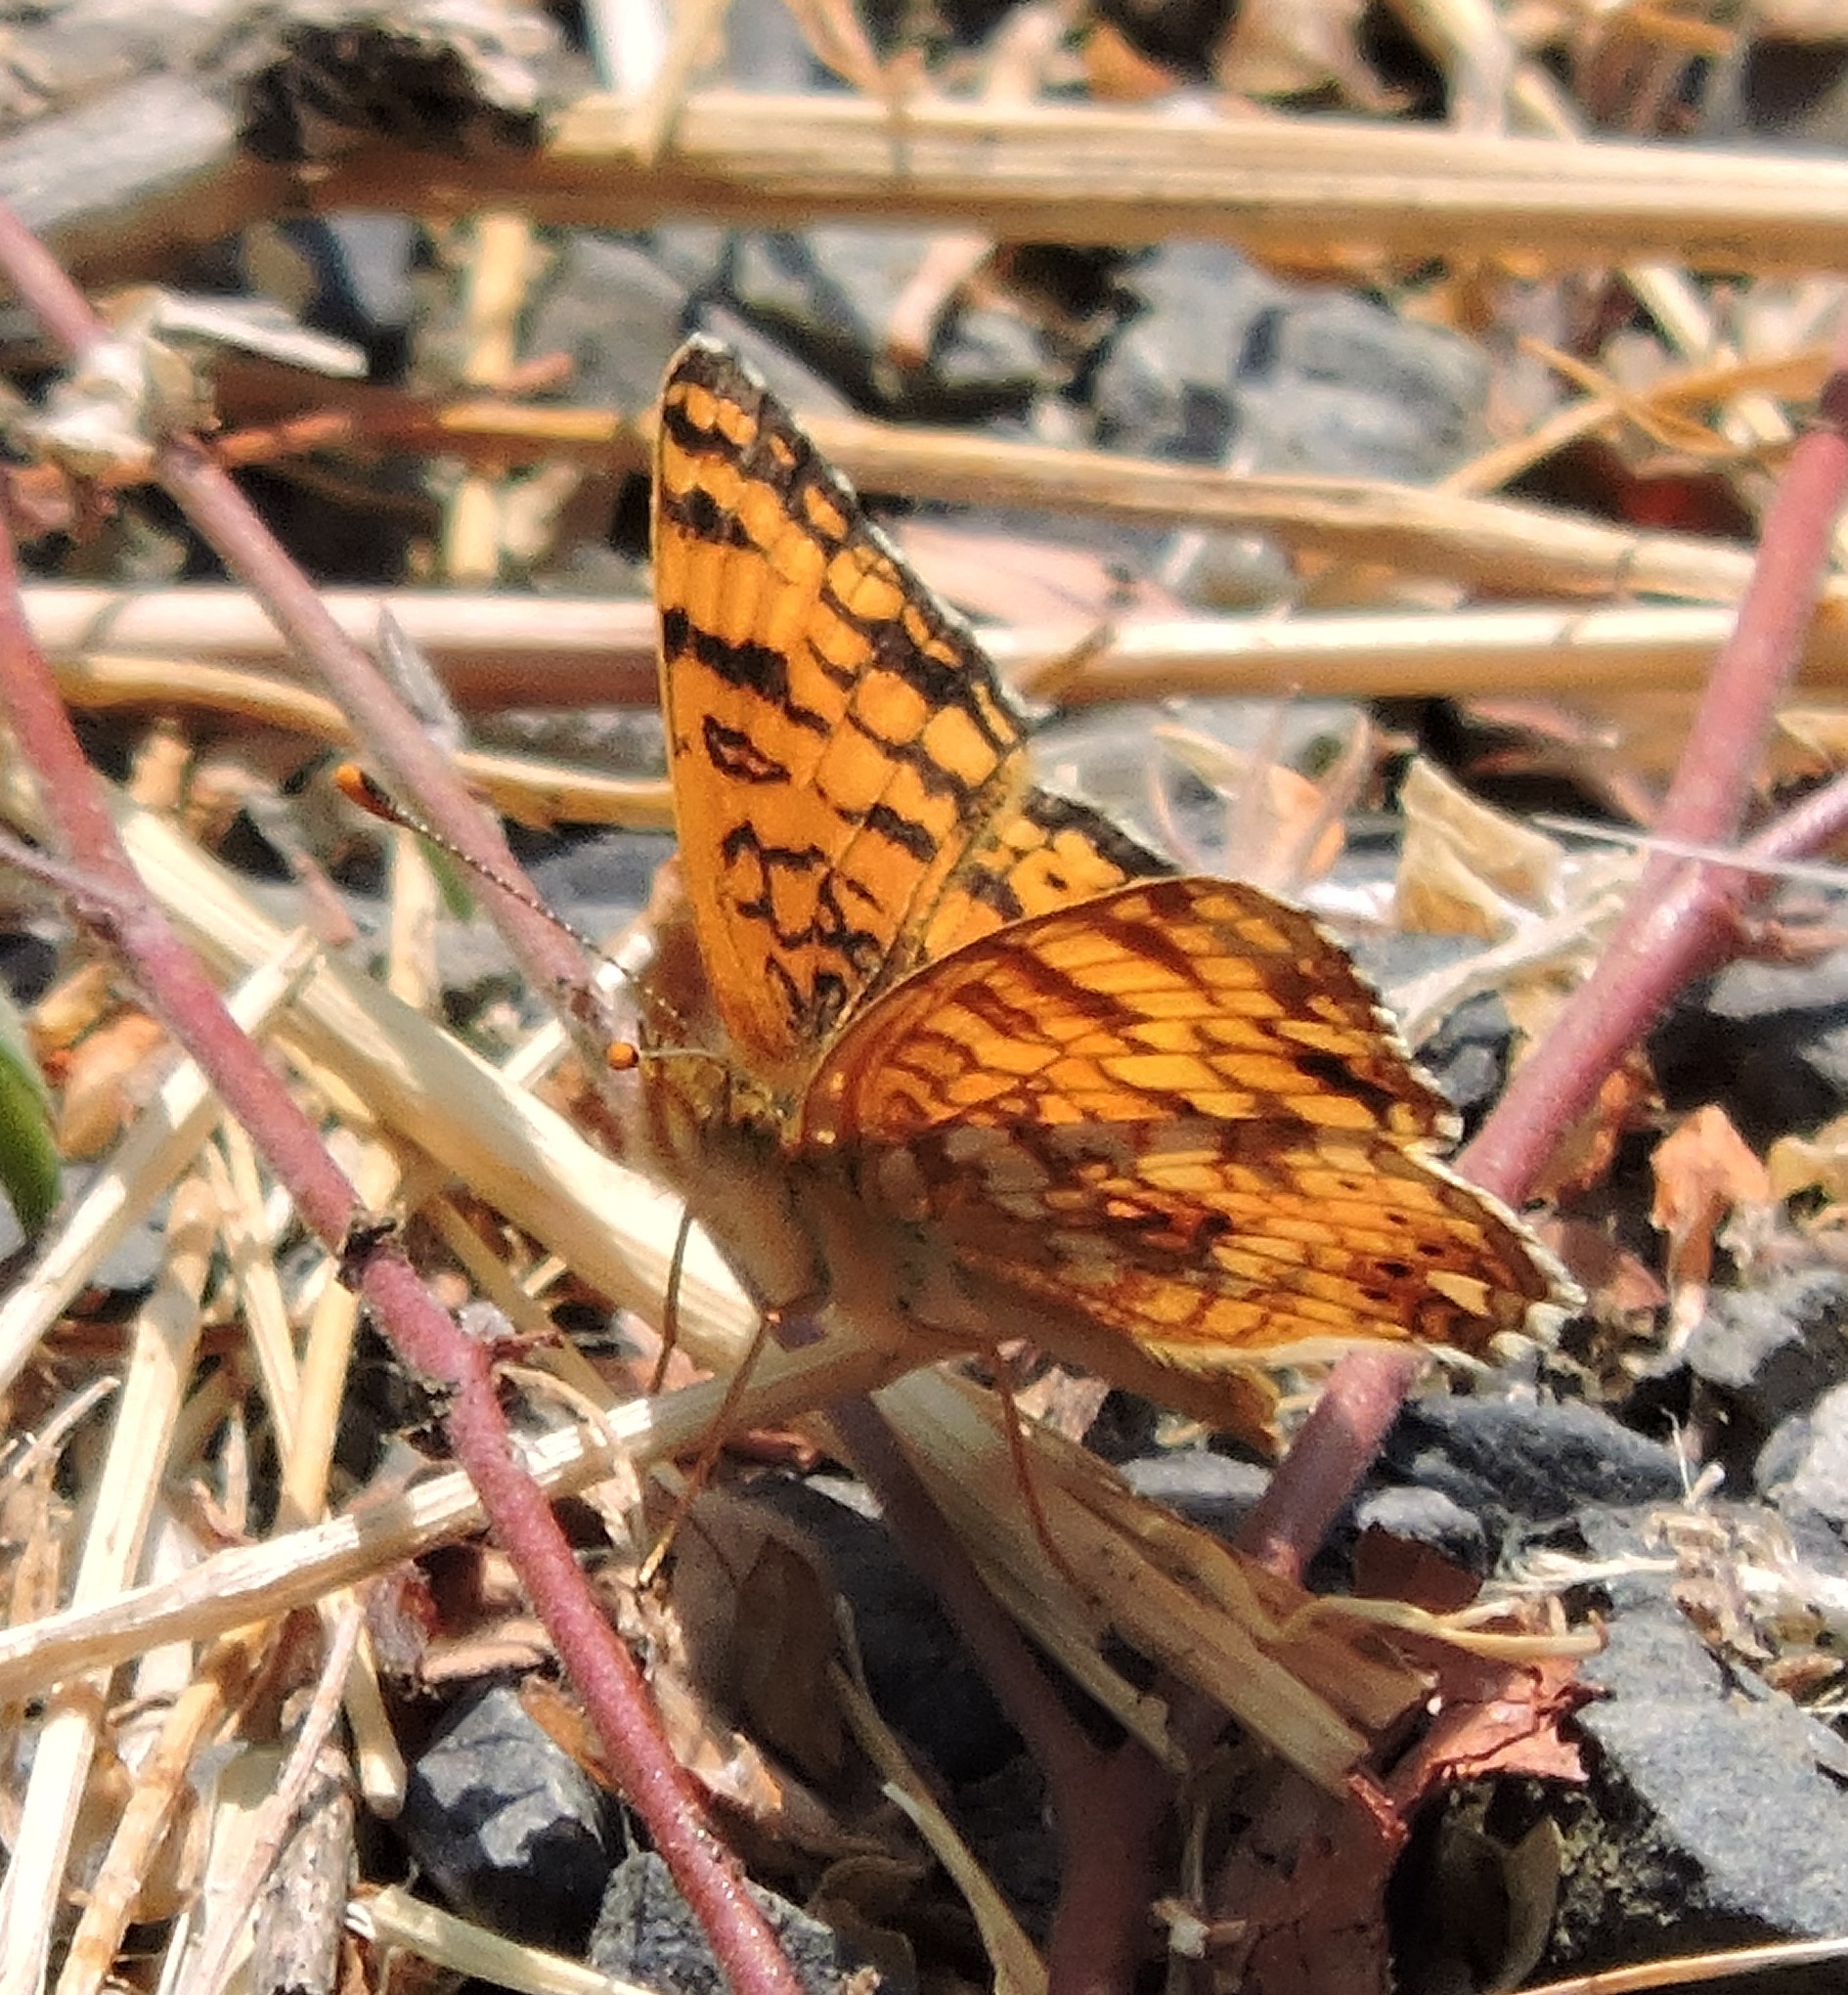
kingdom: Animalia
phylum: Arthropoda
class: Insecta
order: Lepidoptera
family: Nymphalidae
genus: Eresia
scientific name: Eresia aveyrona
